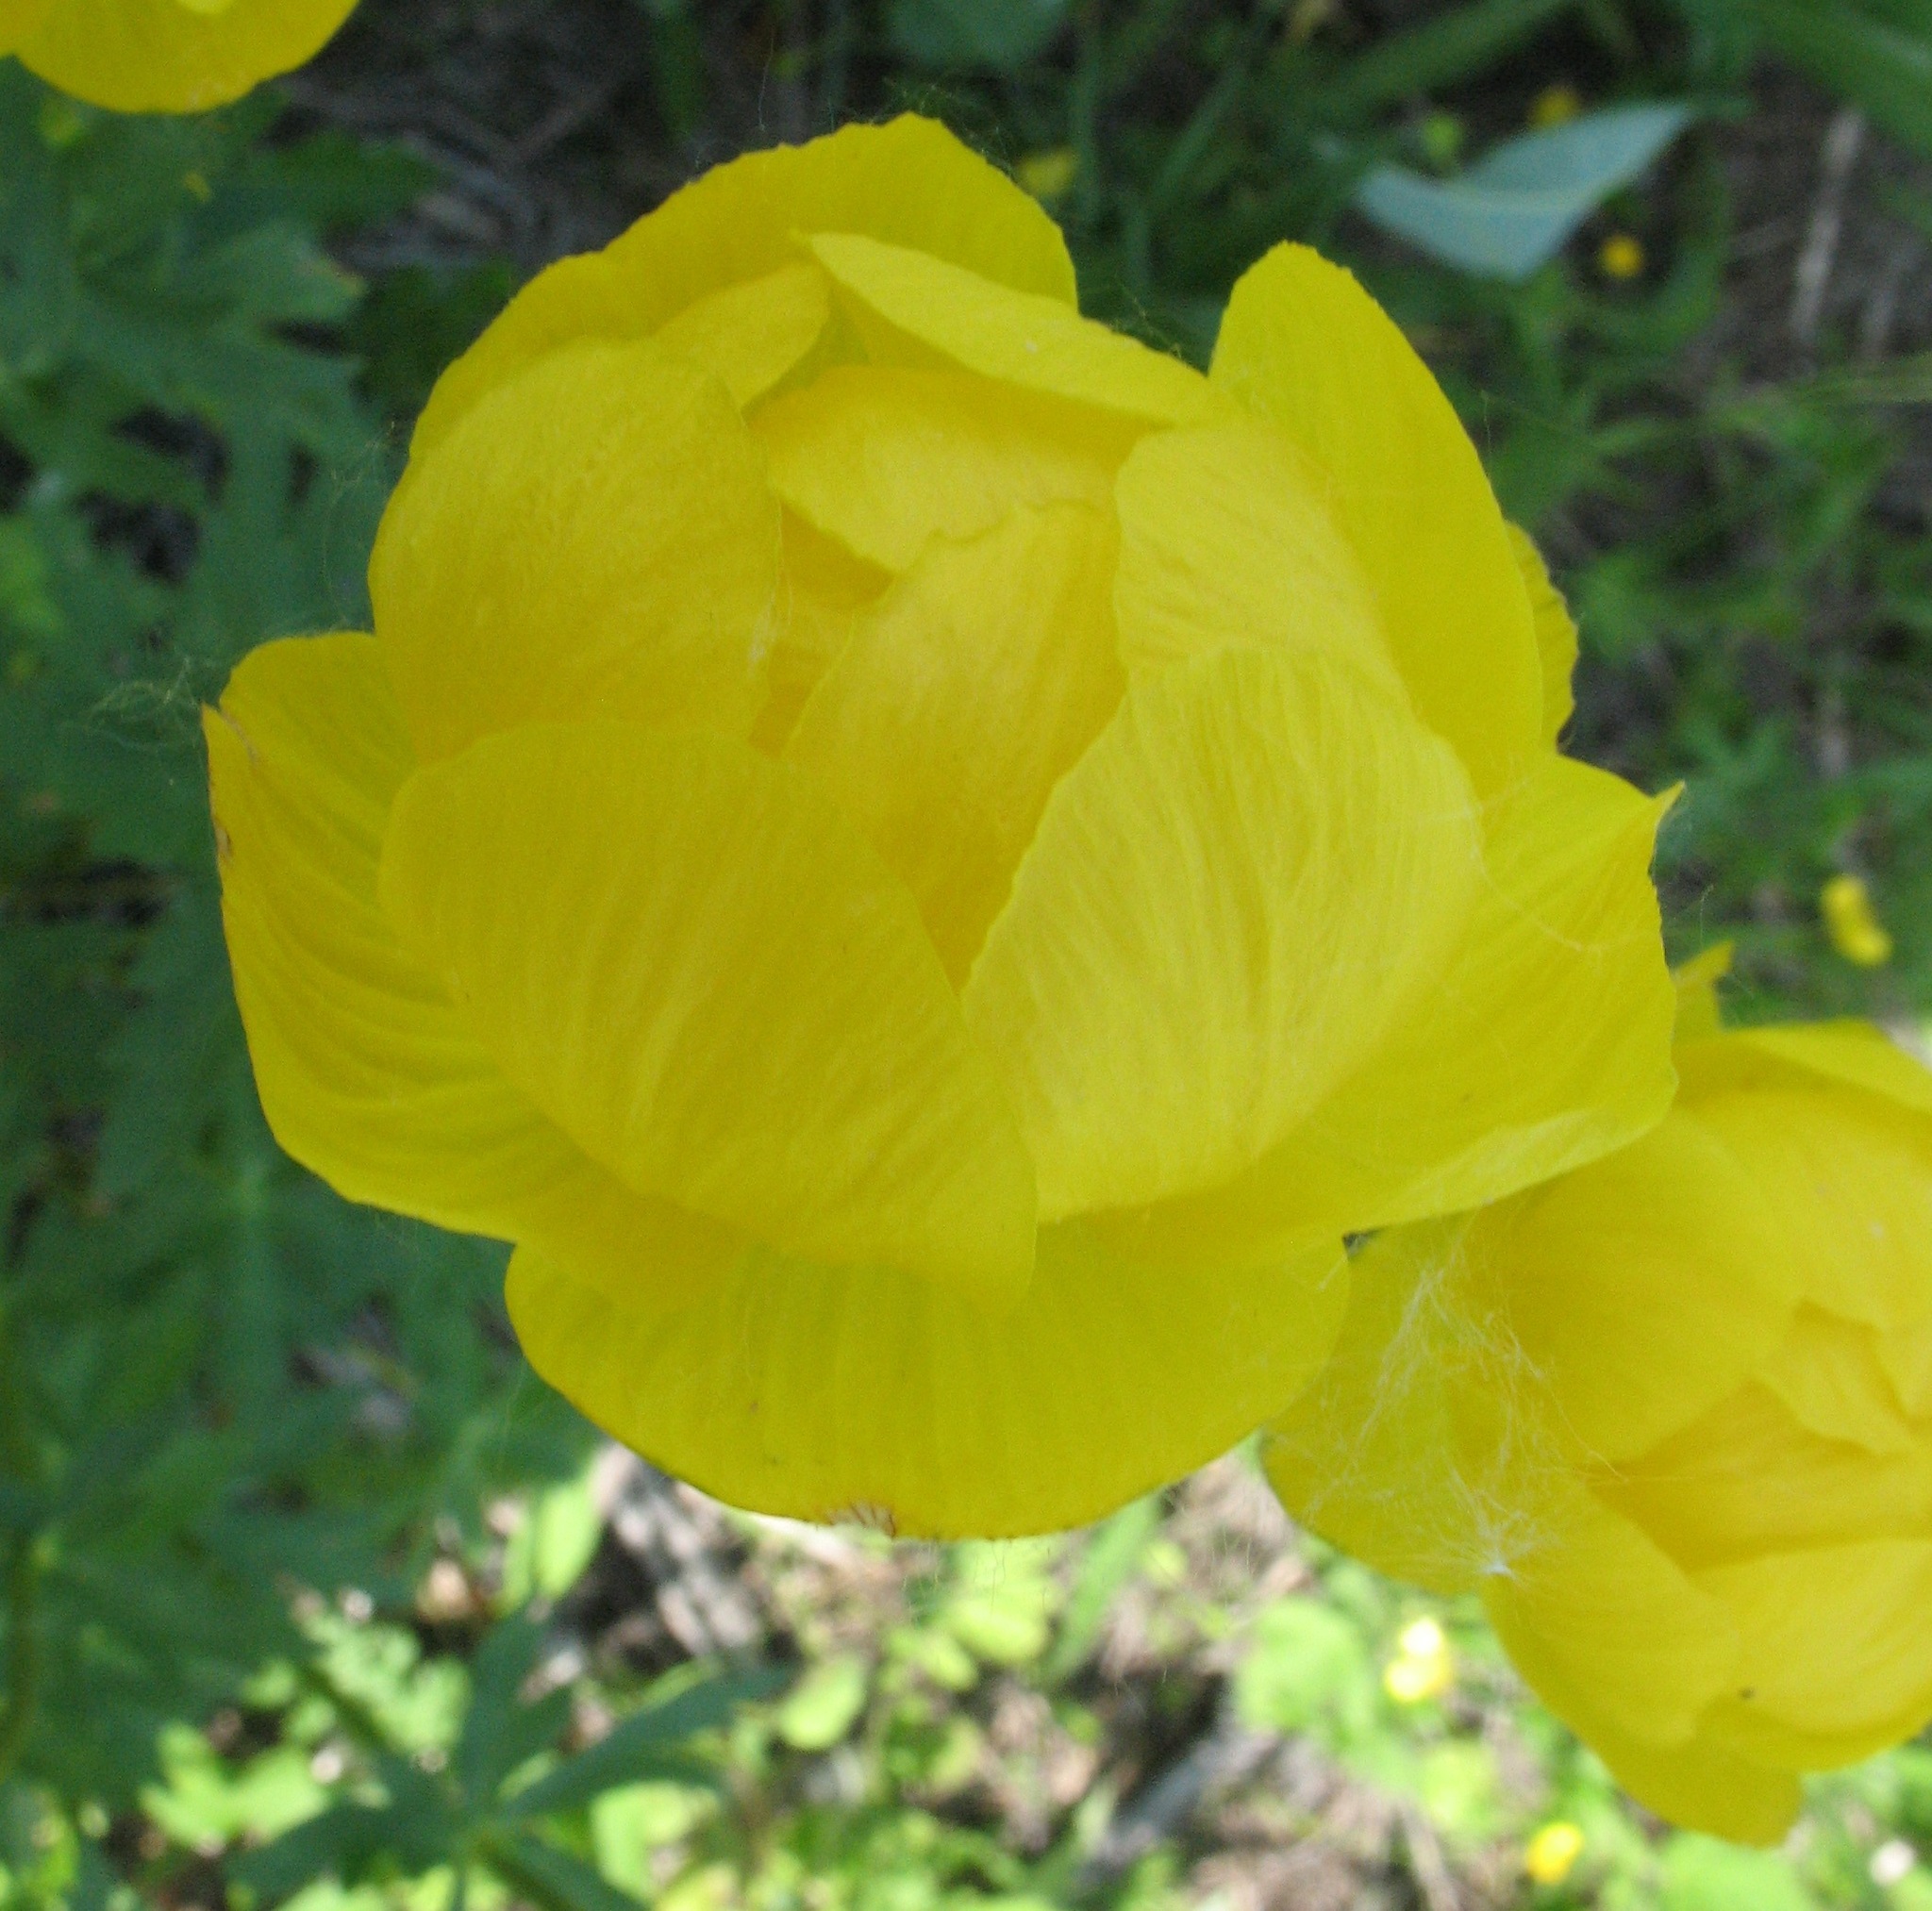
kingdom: Plantae
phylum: Tracheophyta
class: Magnoliopsida
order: Ranunculales
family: Ranunculaceae
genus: Trollius
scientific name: Trollius europaeus
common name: European globeflower
